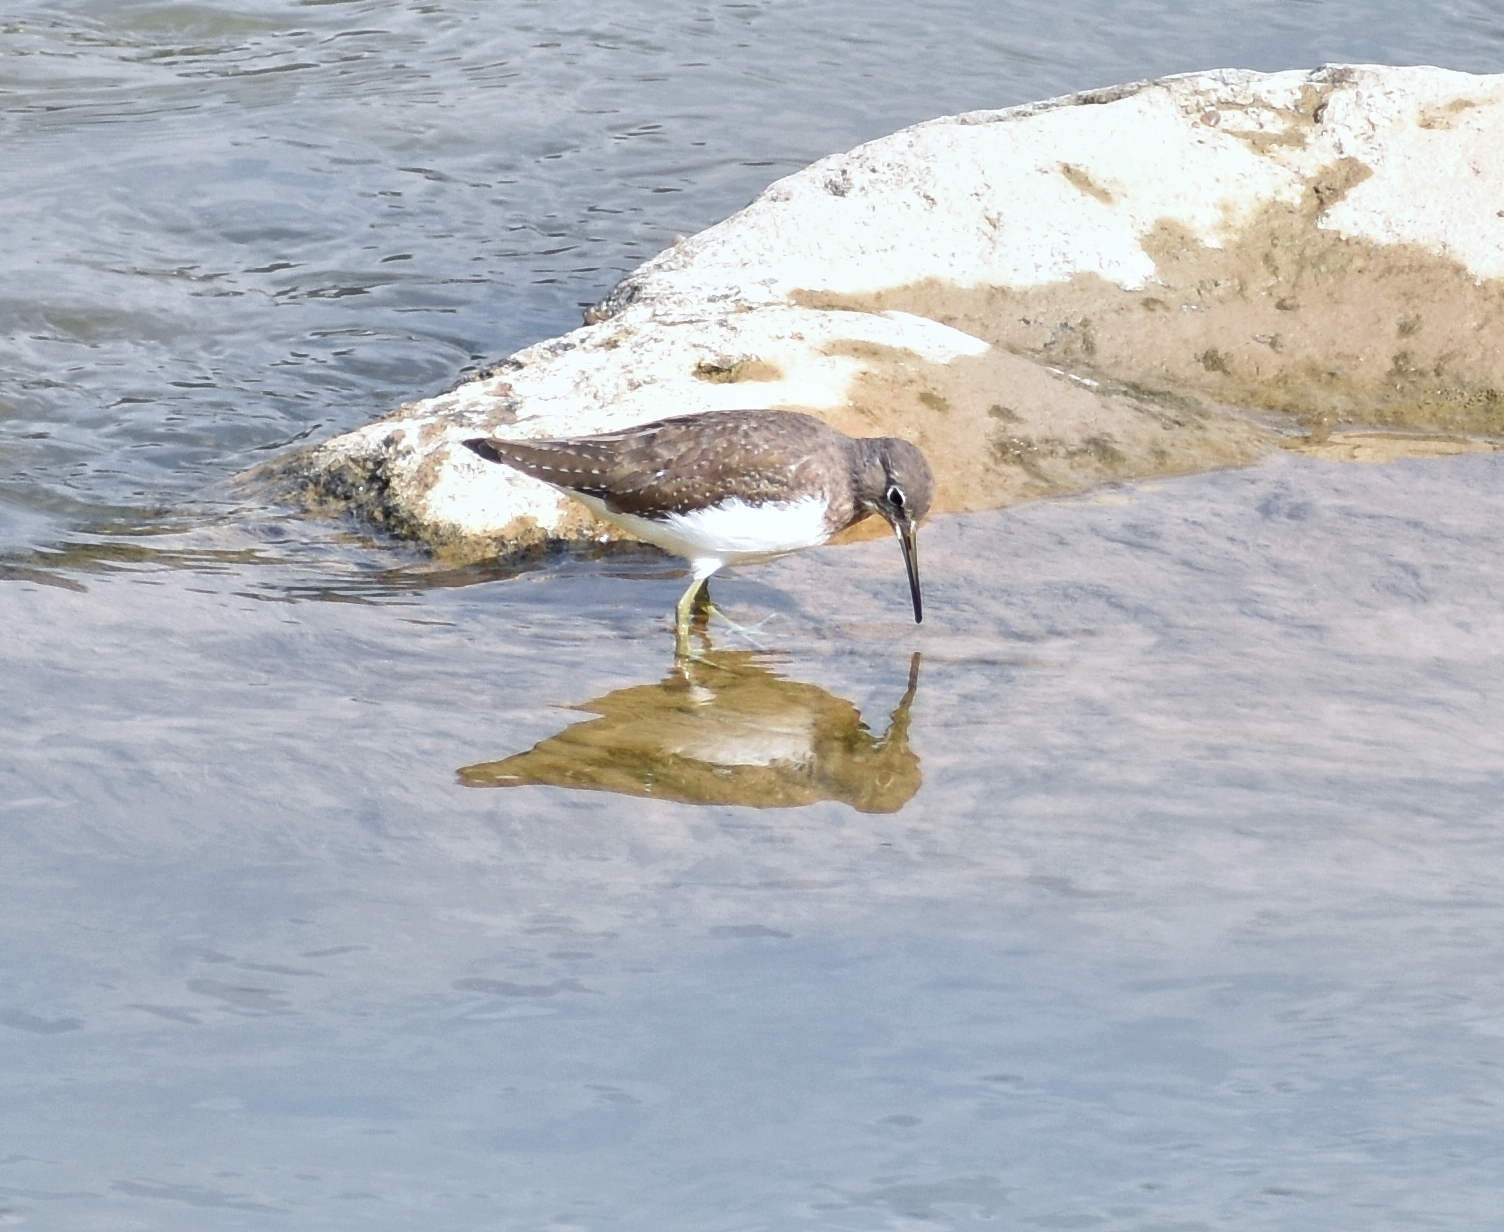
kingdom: Animalia
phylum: Chordata
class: Aves
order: Charadriiformes
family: Scolopacidae
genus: Tringa
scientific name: Tringa ochropus
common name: Green sandpiper
